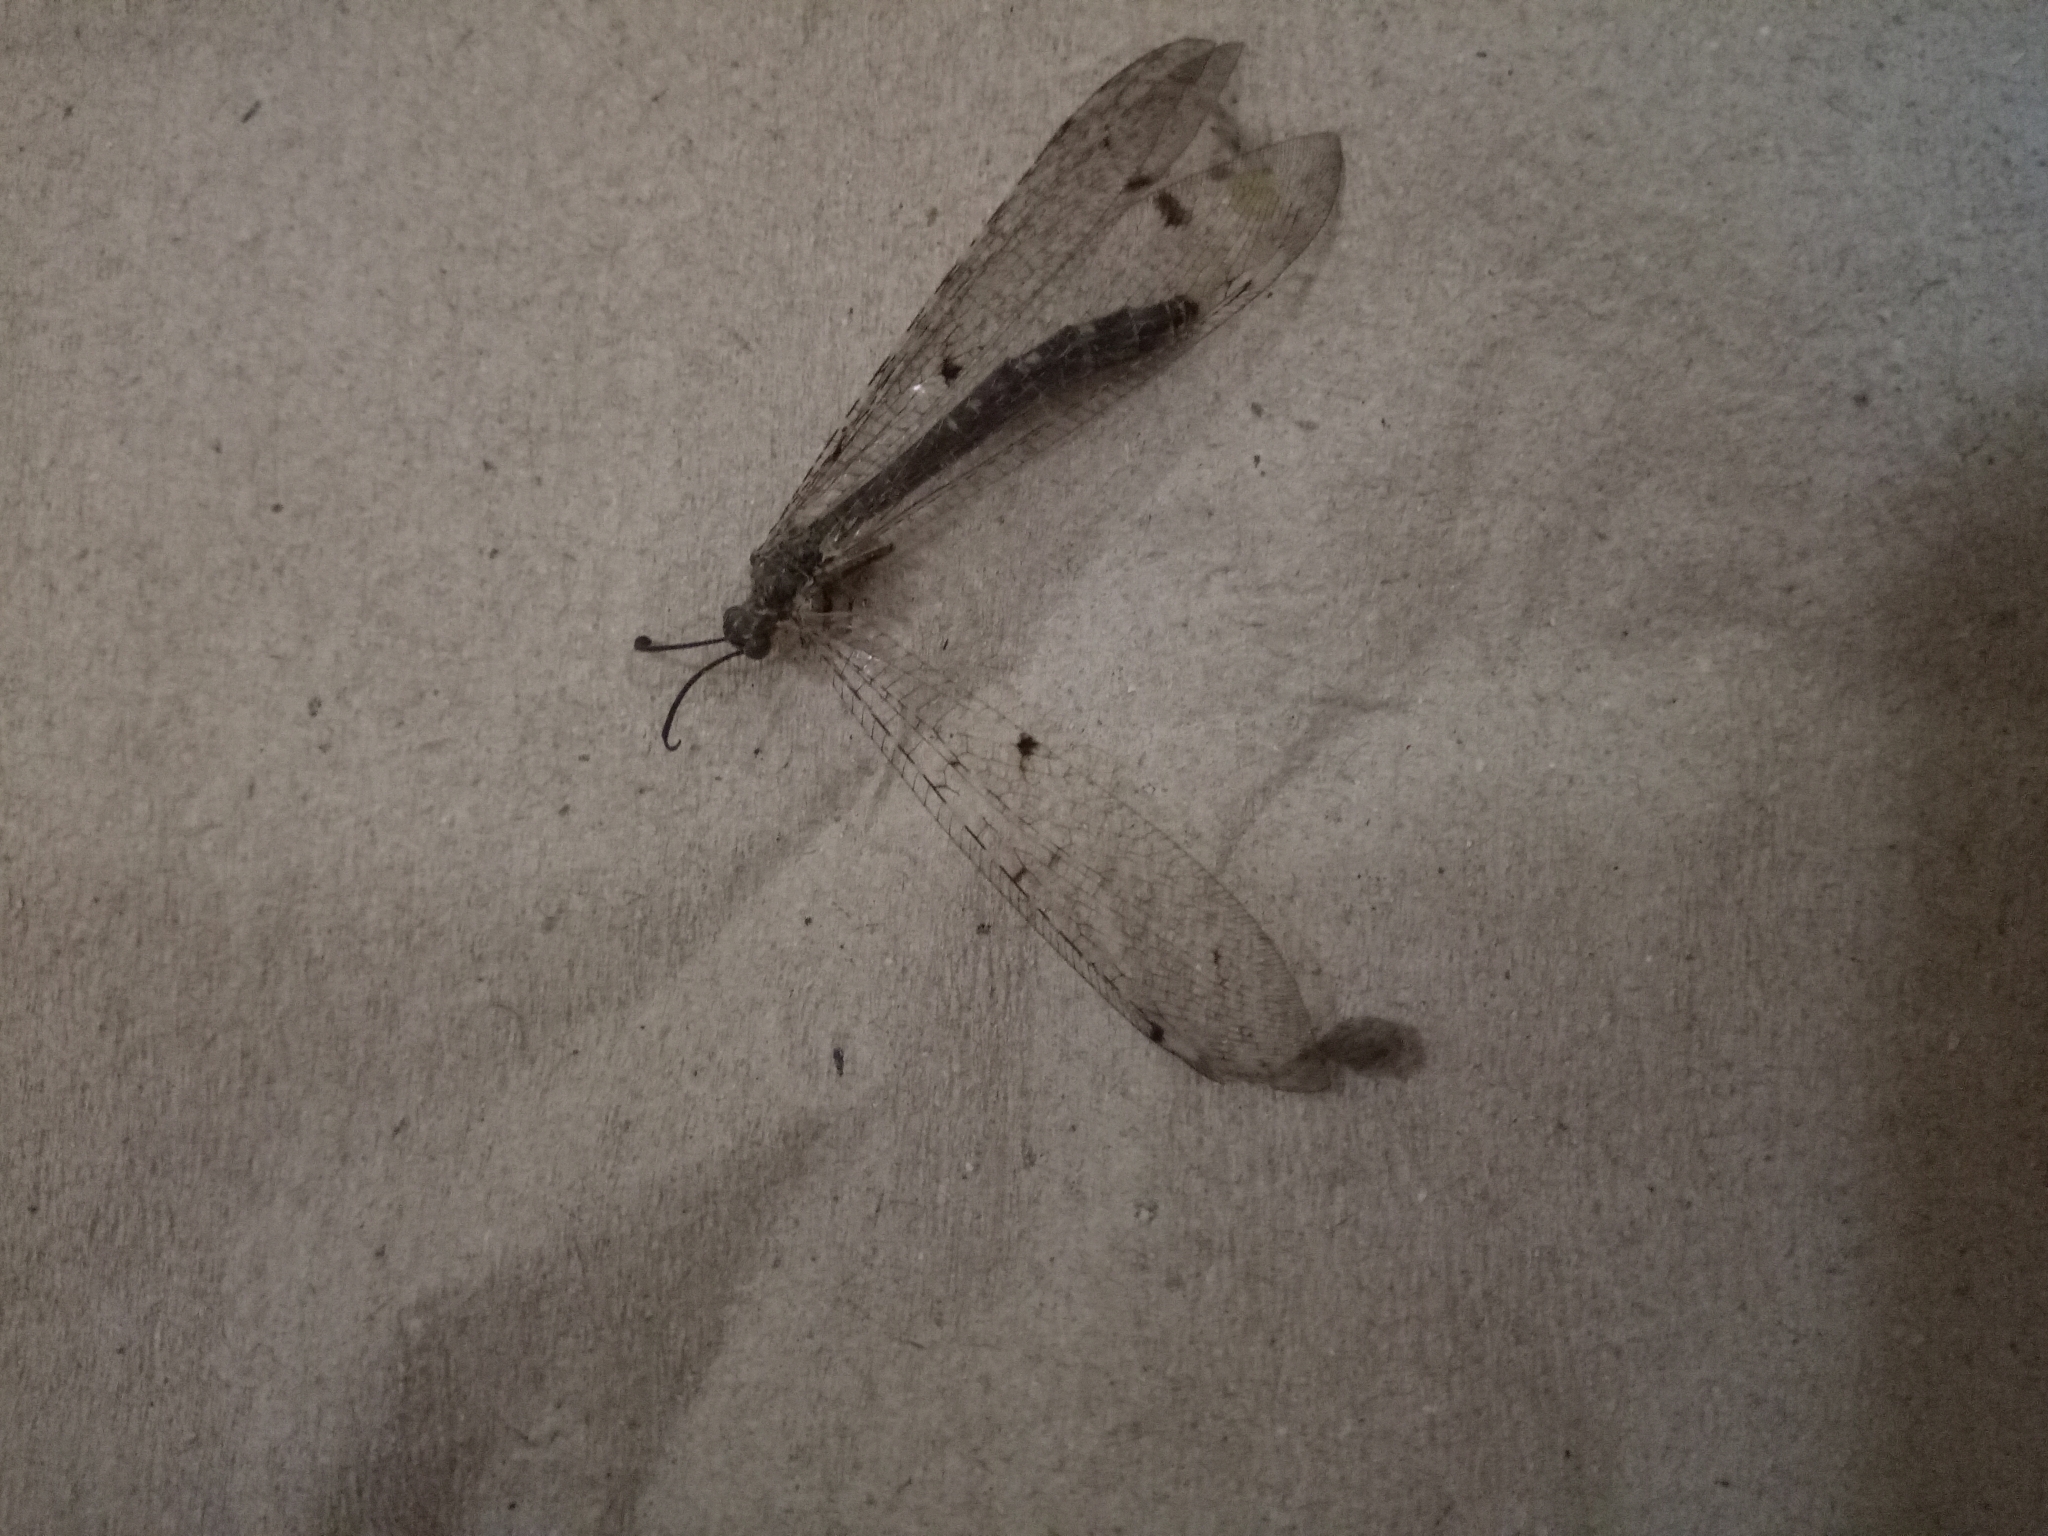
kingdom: Animalia
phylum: Arthropoda
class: Insecta
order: Neuroptera
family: Myrmeleontidae
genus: Distoleon
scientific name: Distoleon tetragrammicus
